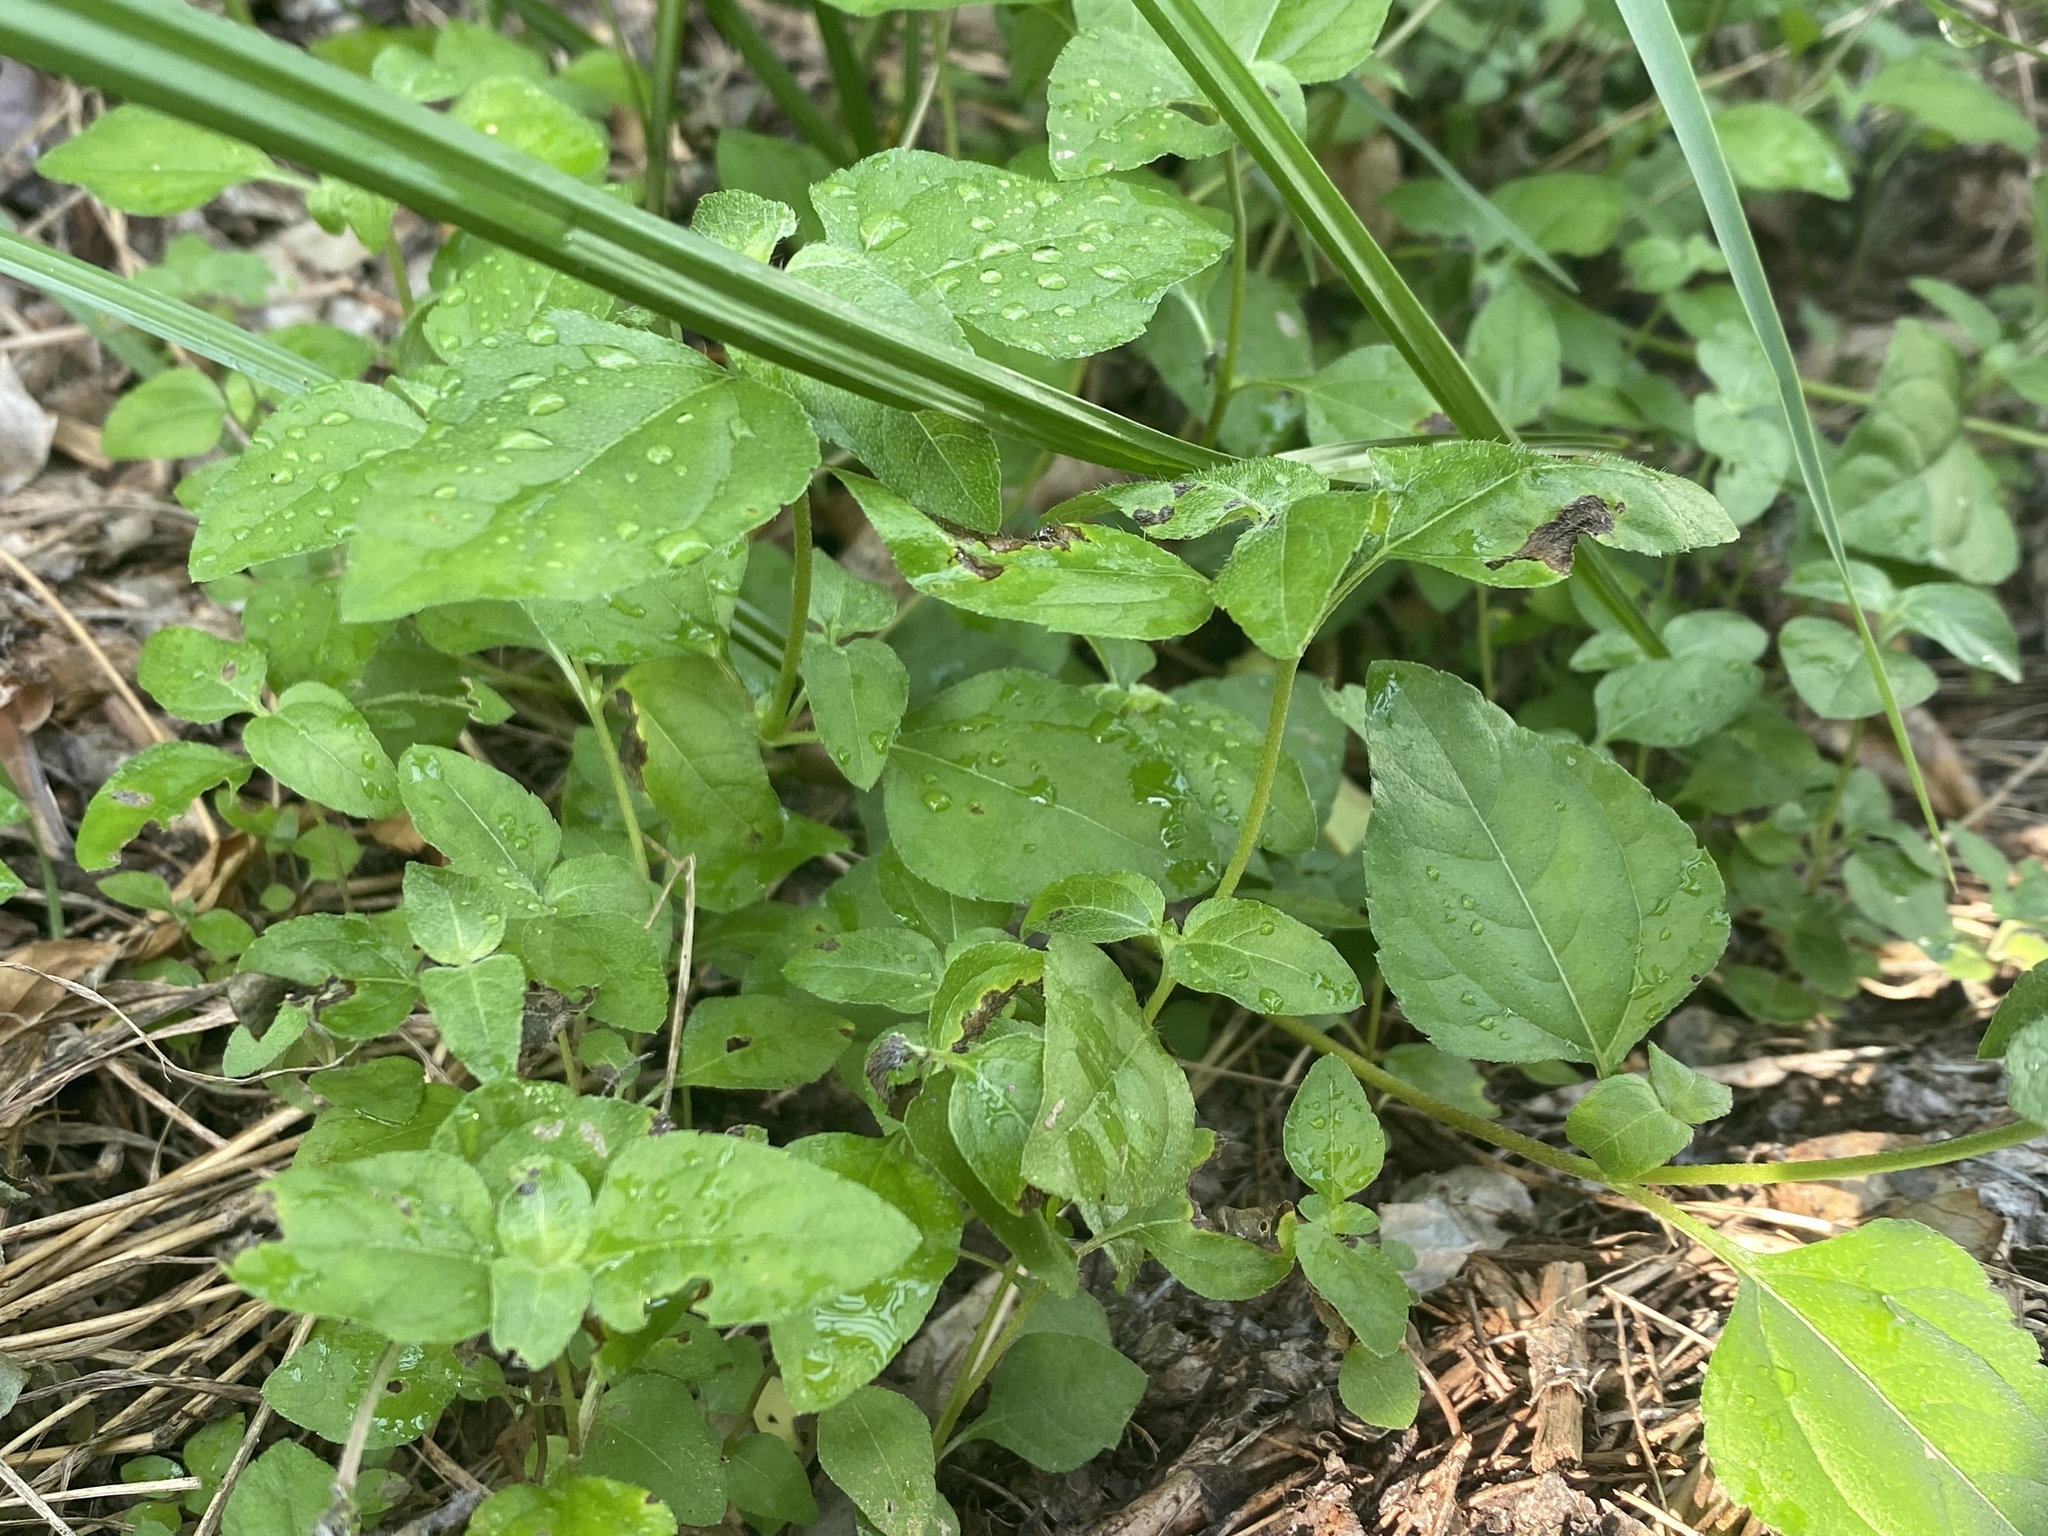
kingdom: Plantae
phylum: Tracheophyta
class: Magnoliopsida
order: Asterales
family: Asteraceae
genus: Calyptocarpus
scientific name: Calyptocarpus vialis
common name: Straggler daisy
